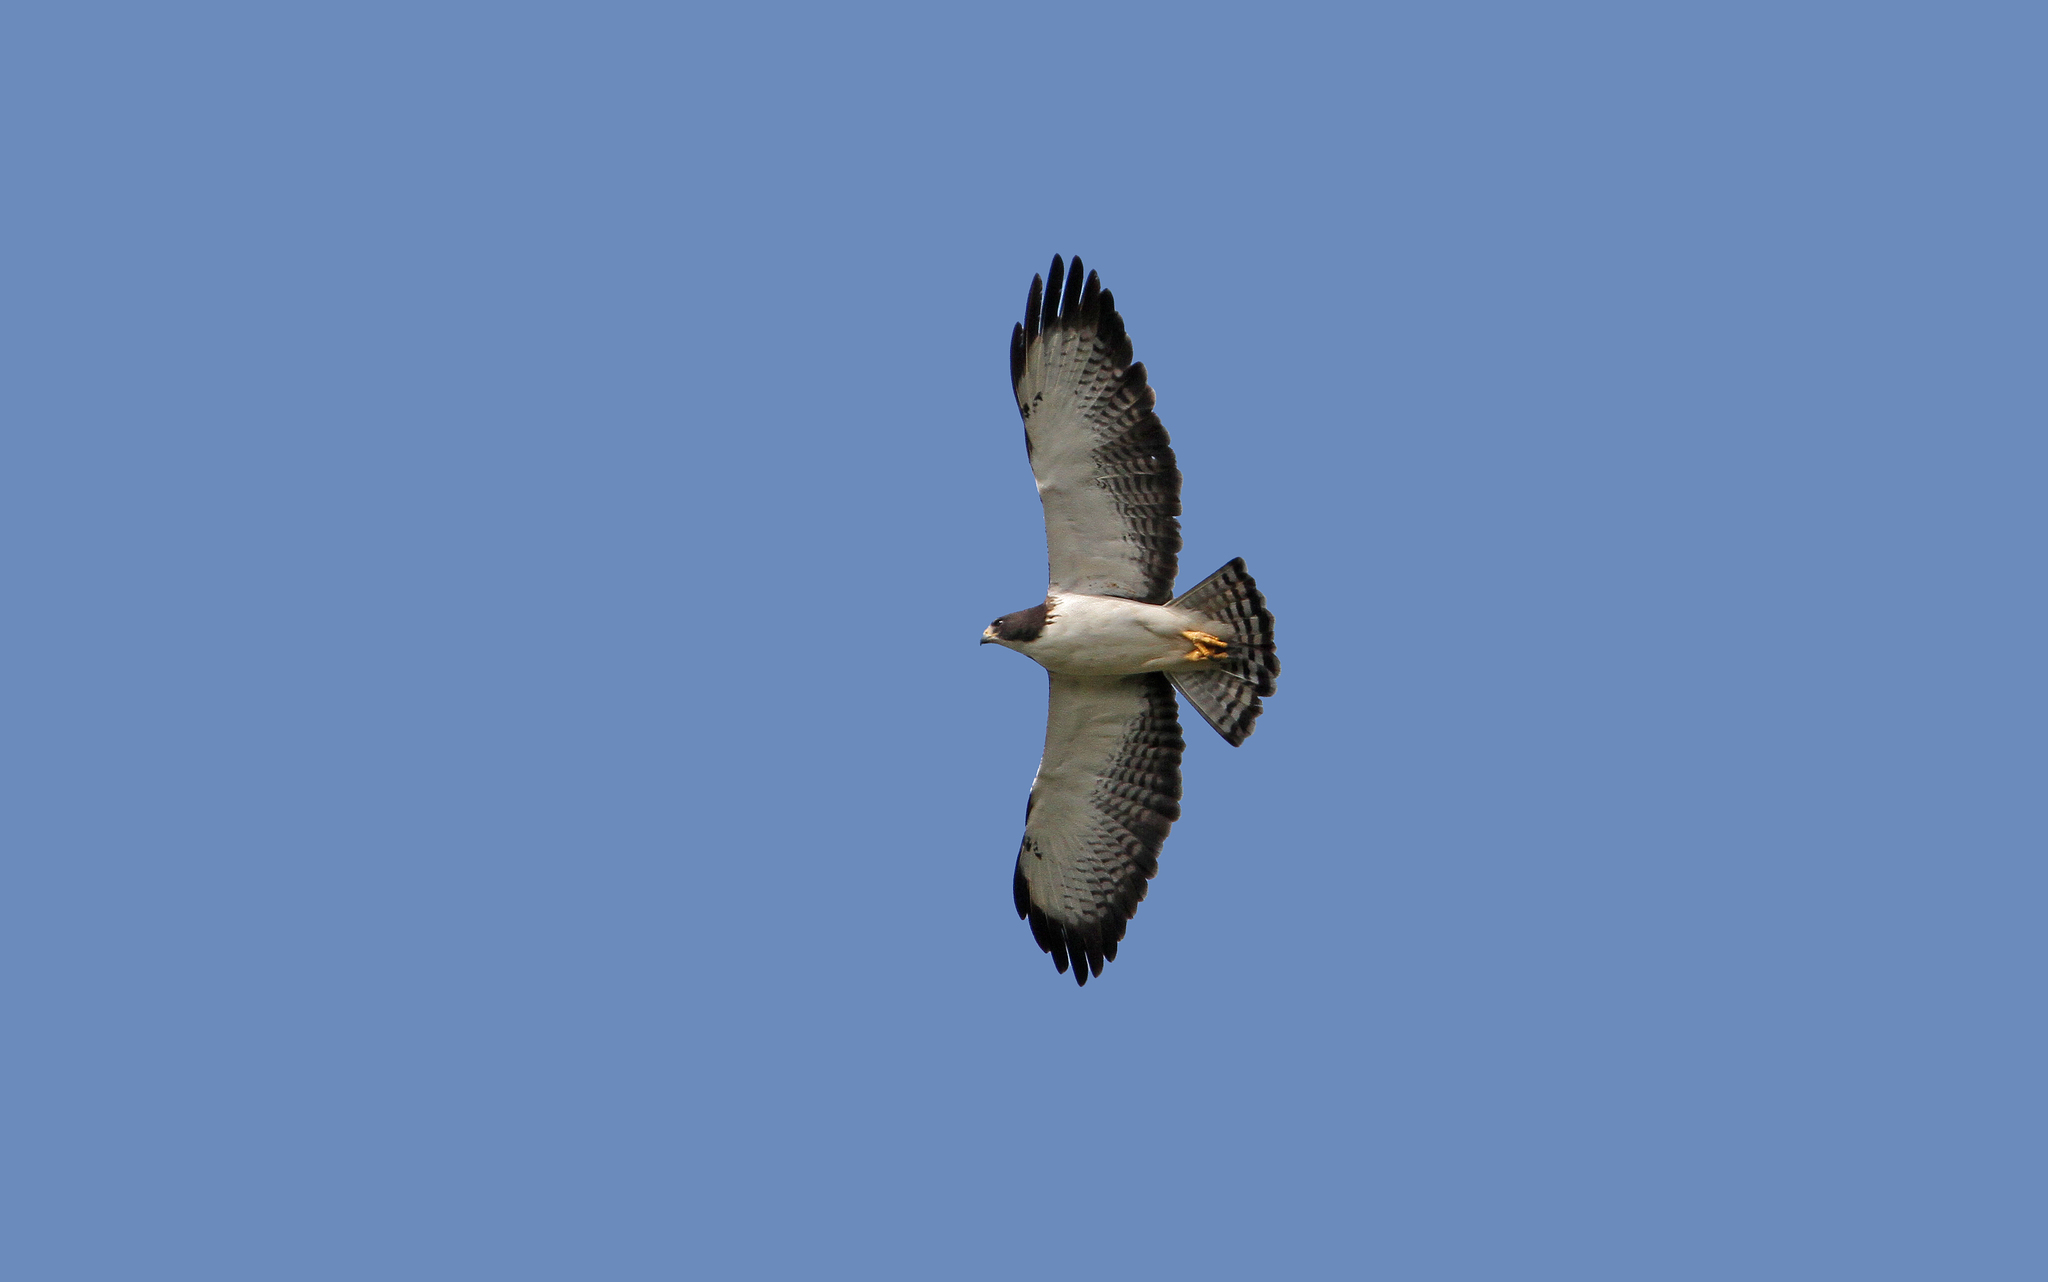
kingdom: Animalia
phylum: Chordata
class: Aves
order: Accipitriformes
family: Accipitridae
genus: Buteo
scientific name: Buteo brachyurus
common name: Short-tailed hawk
